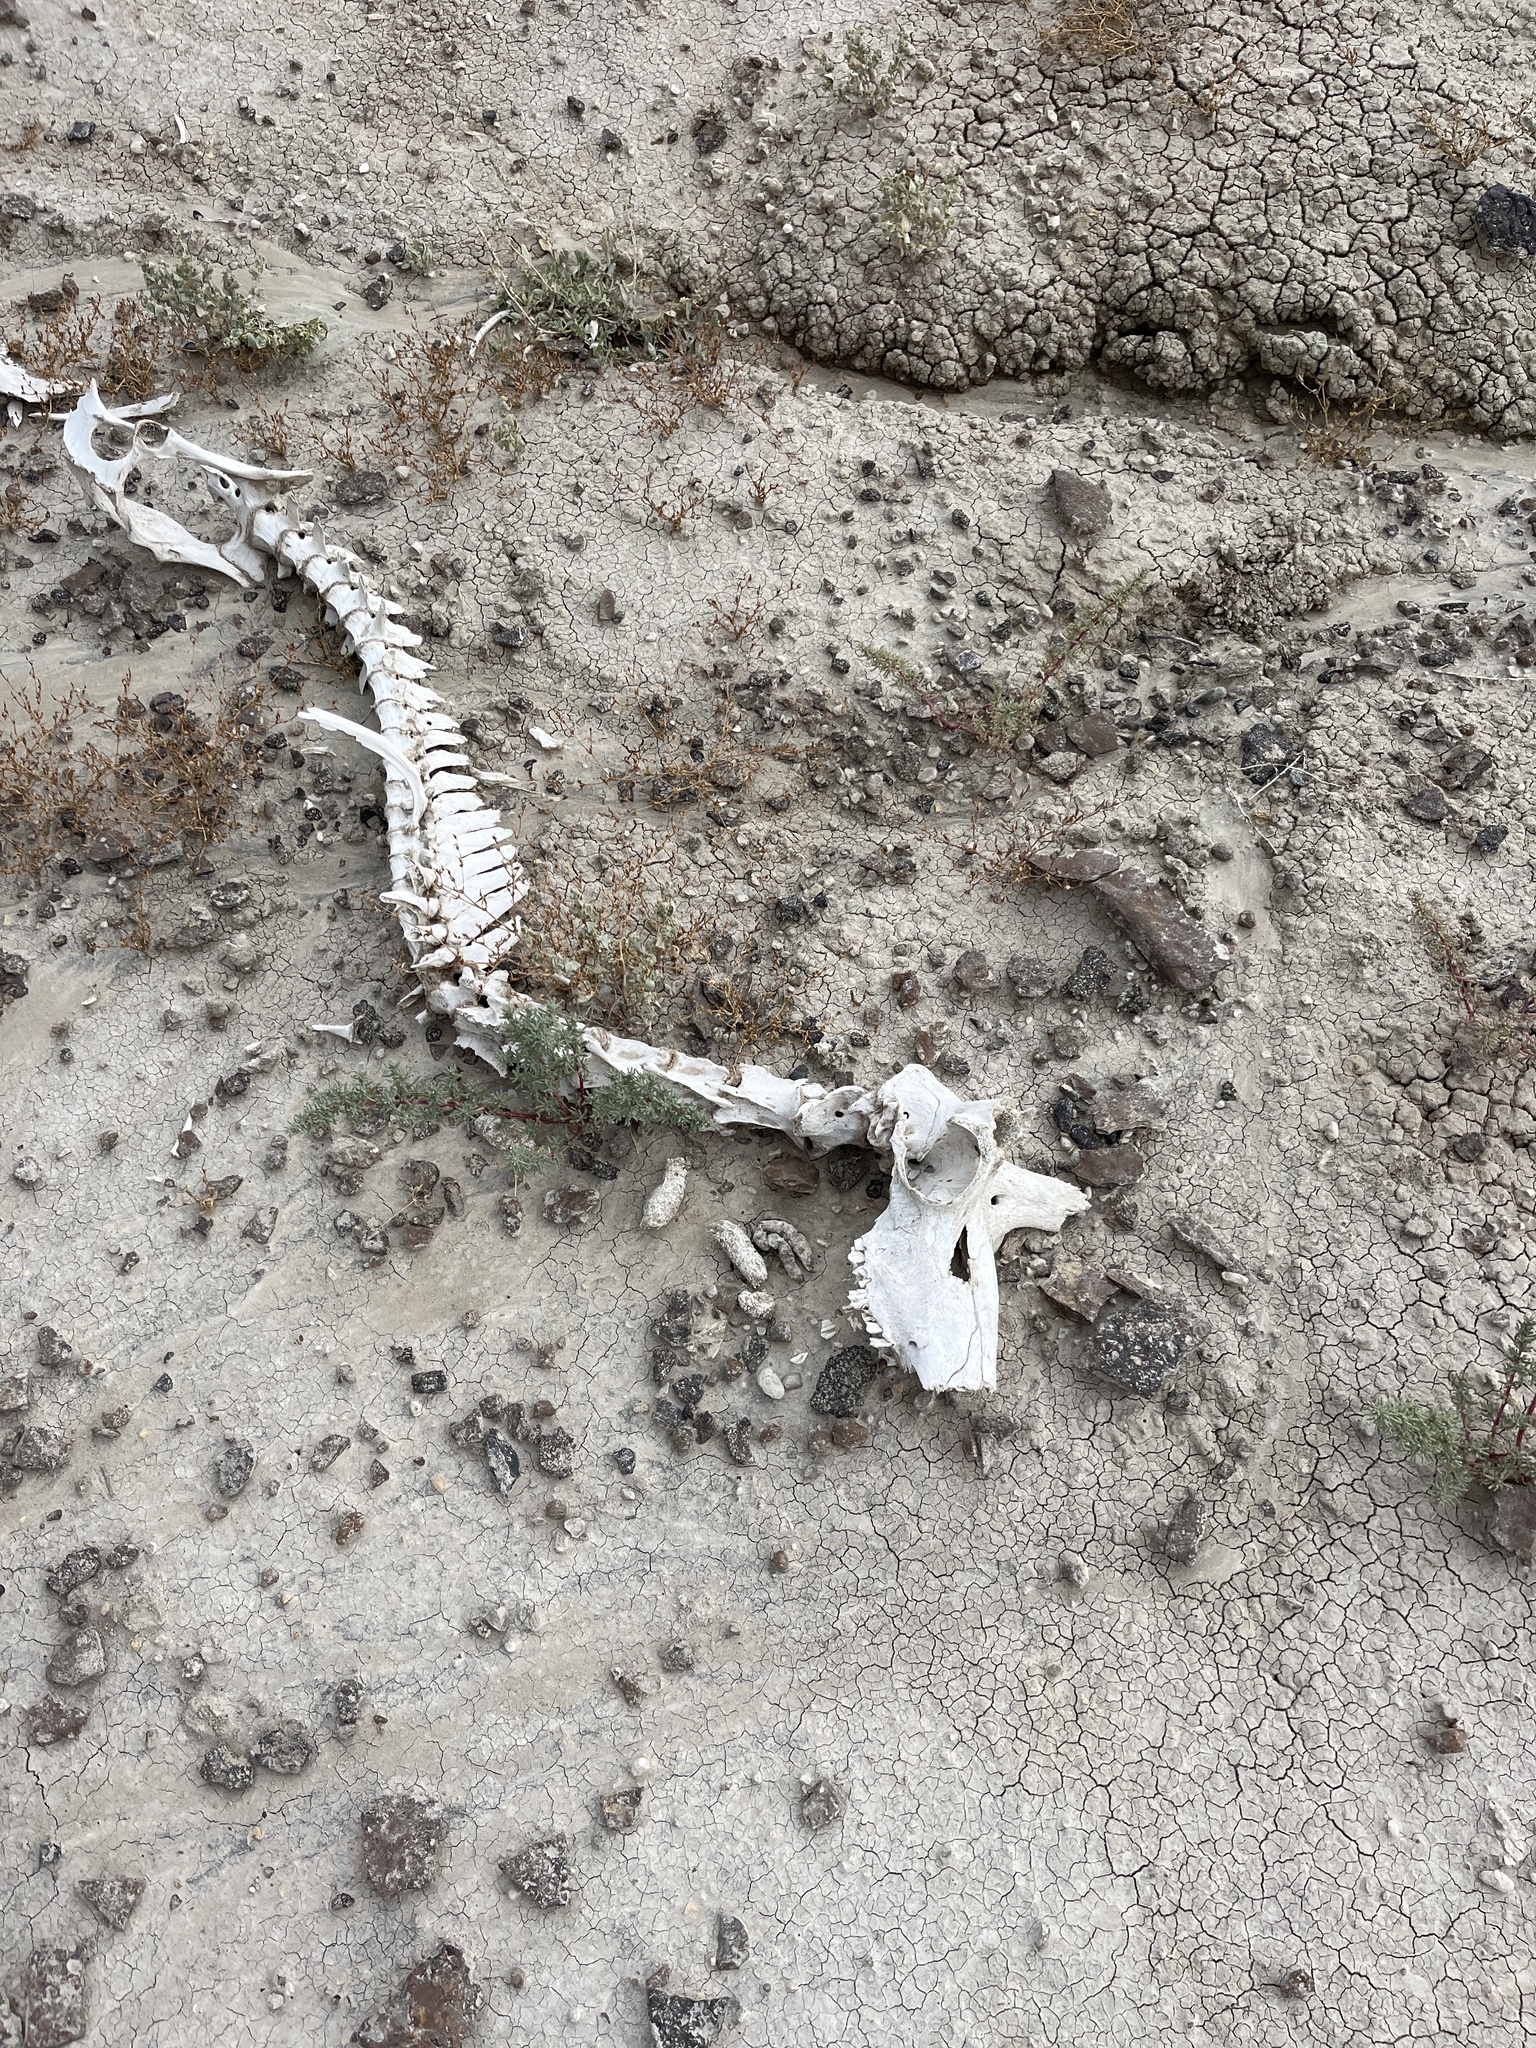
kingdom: Animalia
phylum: Chordata
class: Mammalia
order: Artiodactyla
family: Antilocapridae
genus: Antilocapra
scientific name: Antilocapra americana
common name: Pronghorn
